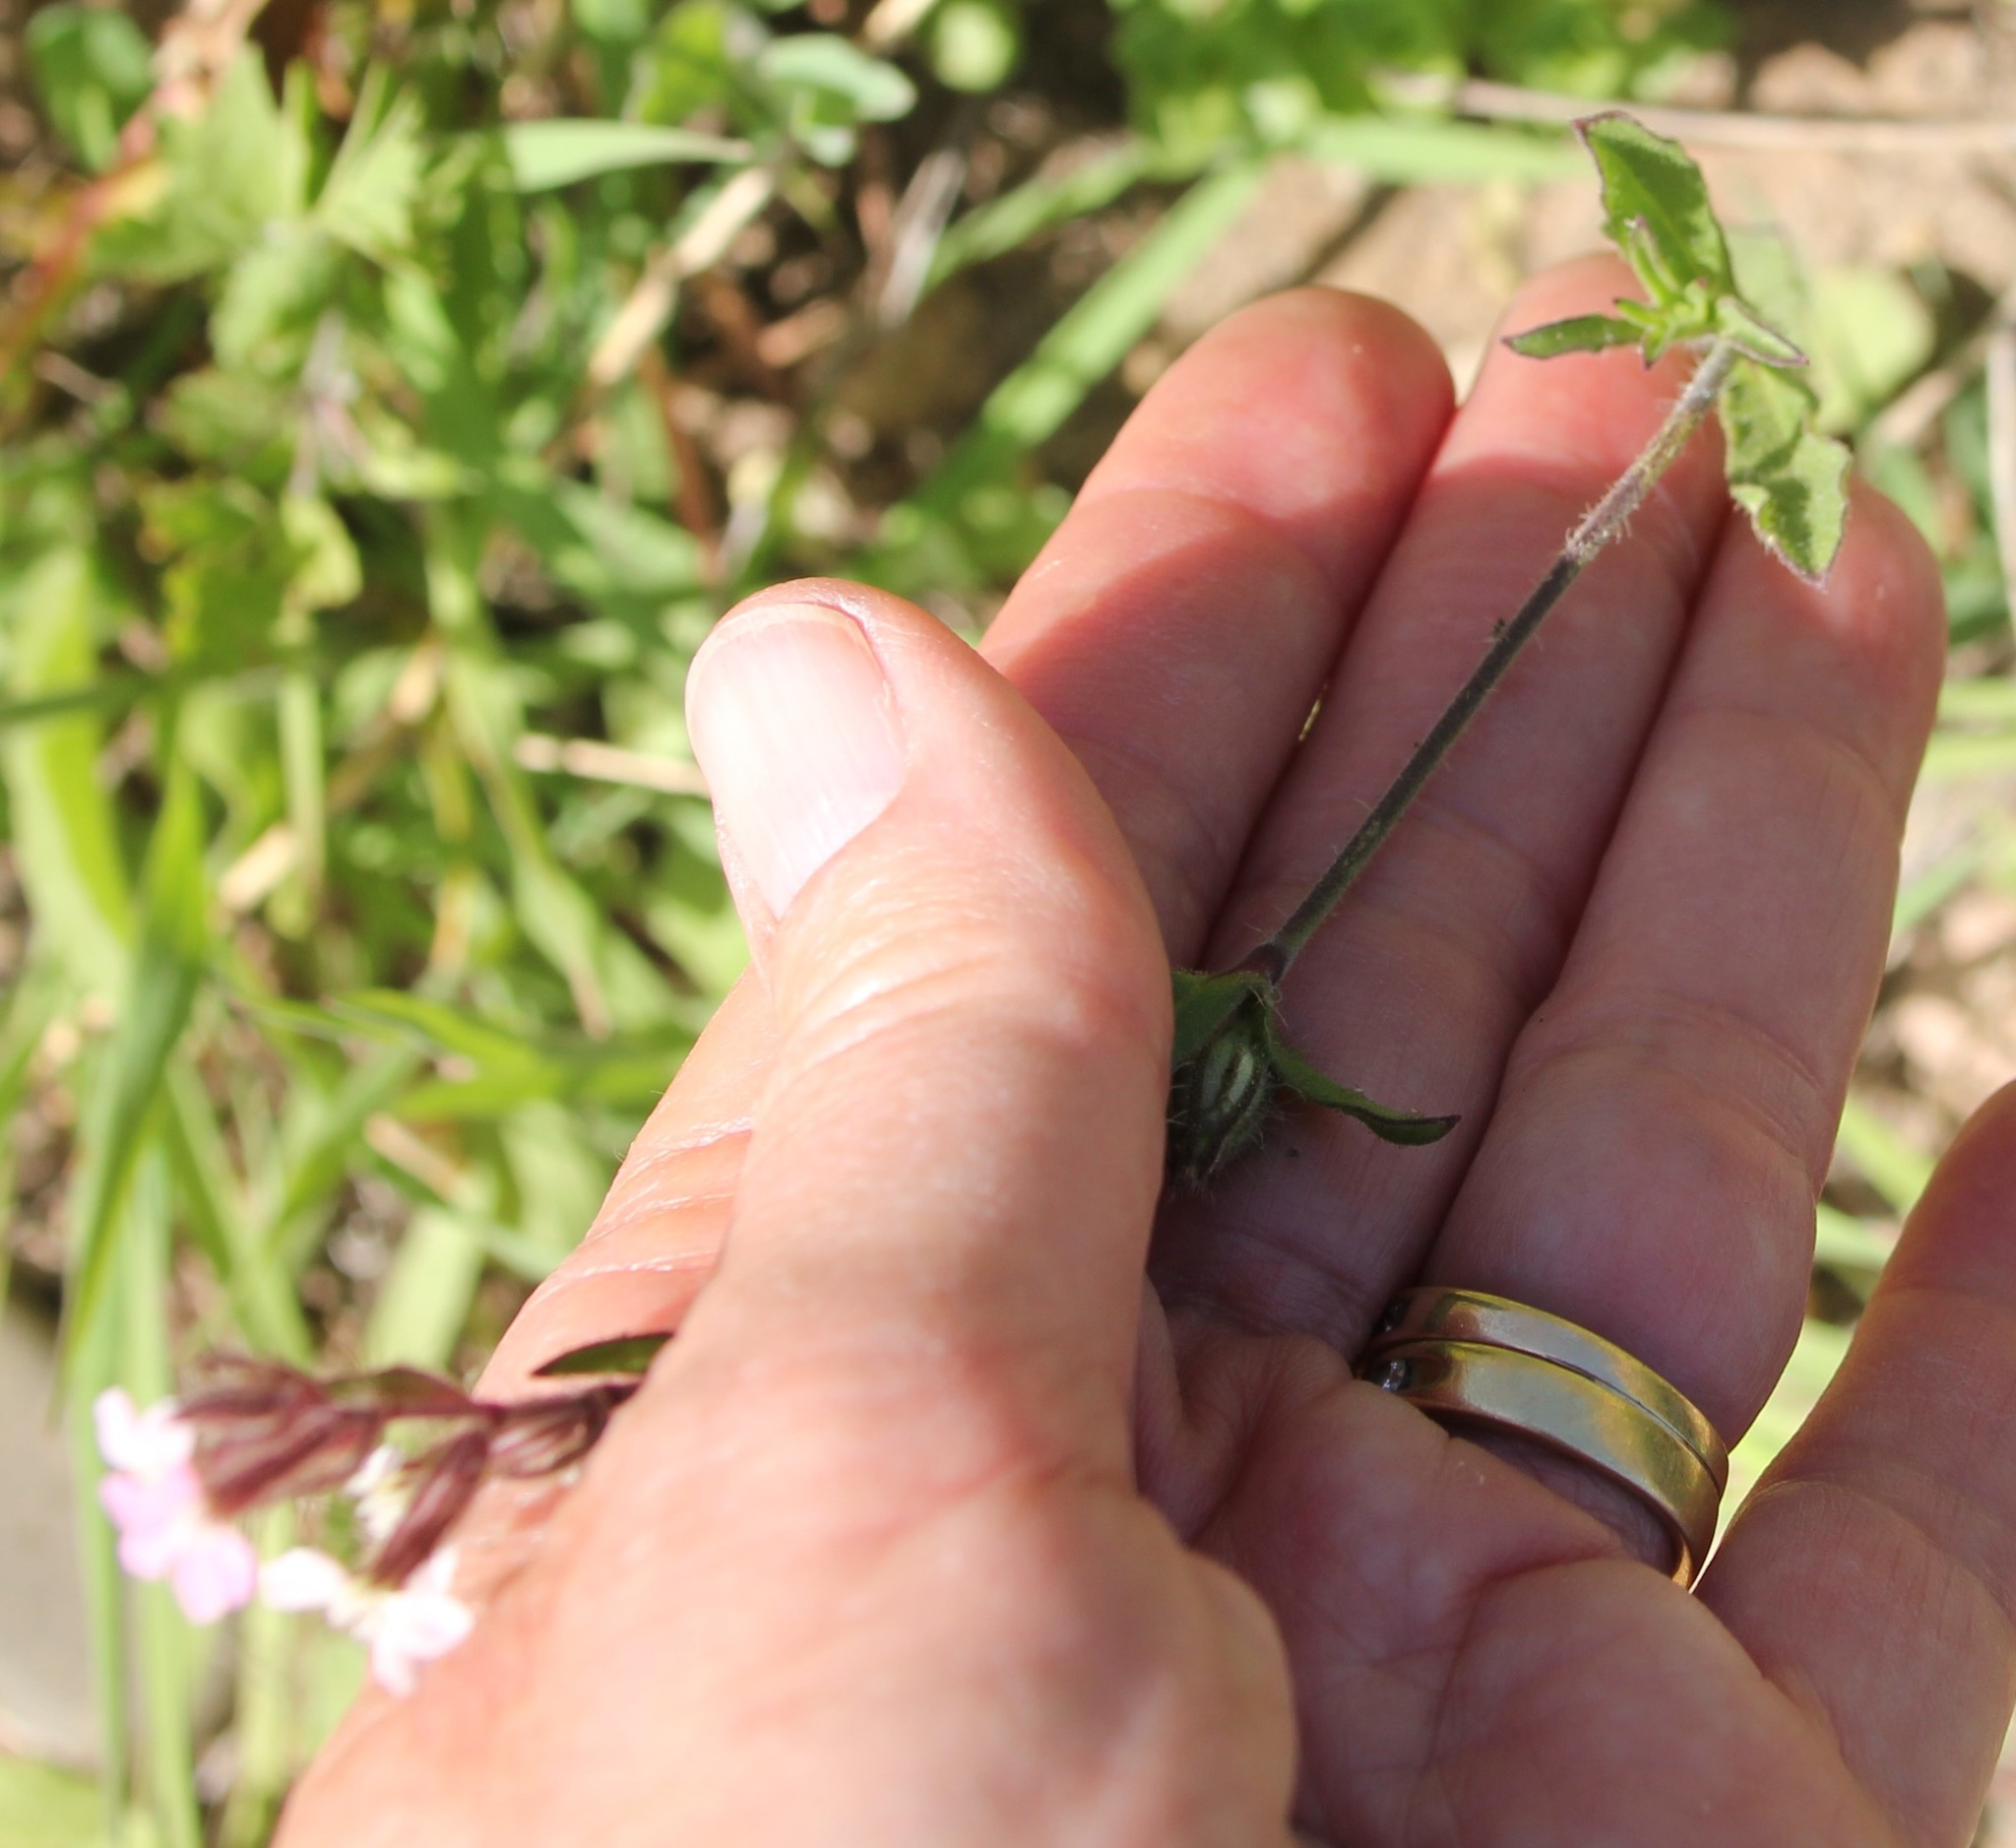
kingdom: Plantae
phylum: Tracheophyta
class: Magnoliopsida
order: Caryophyllales
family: Caryophyllaceae
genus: Silene
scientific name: Silene gallica
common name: Small-flowered catchfly
